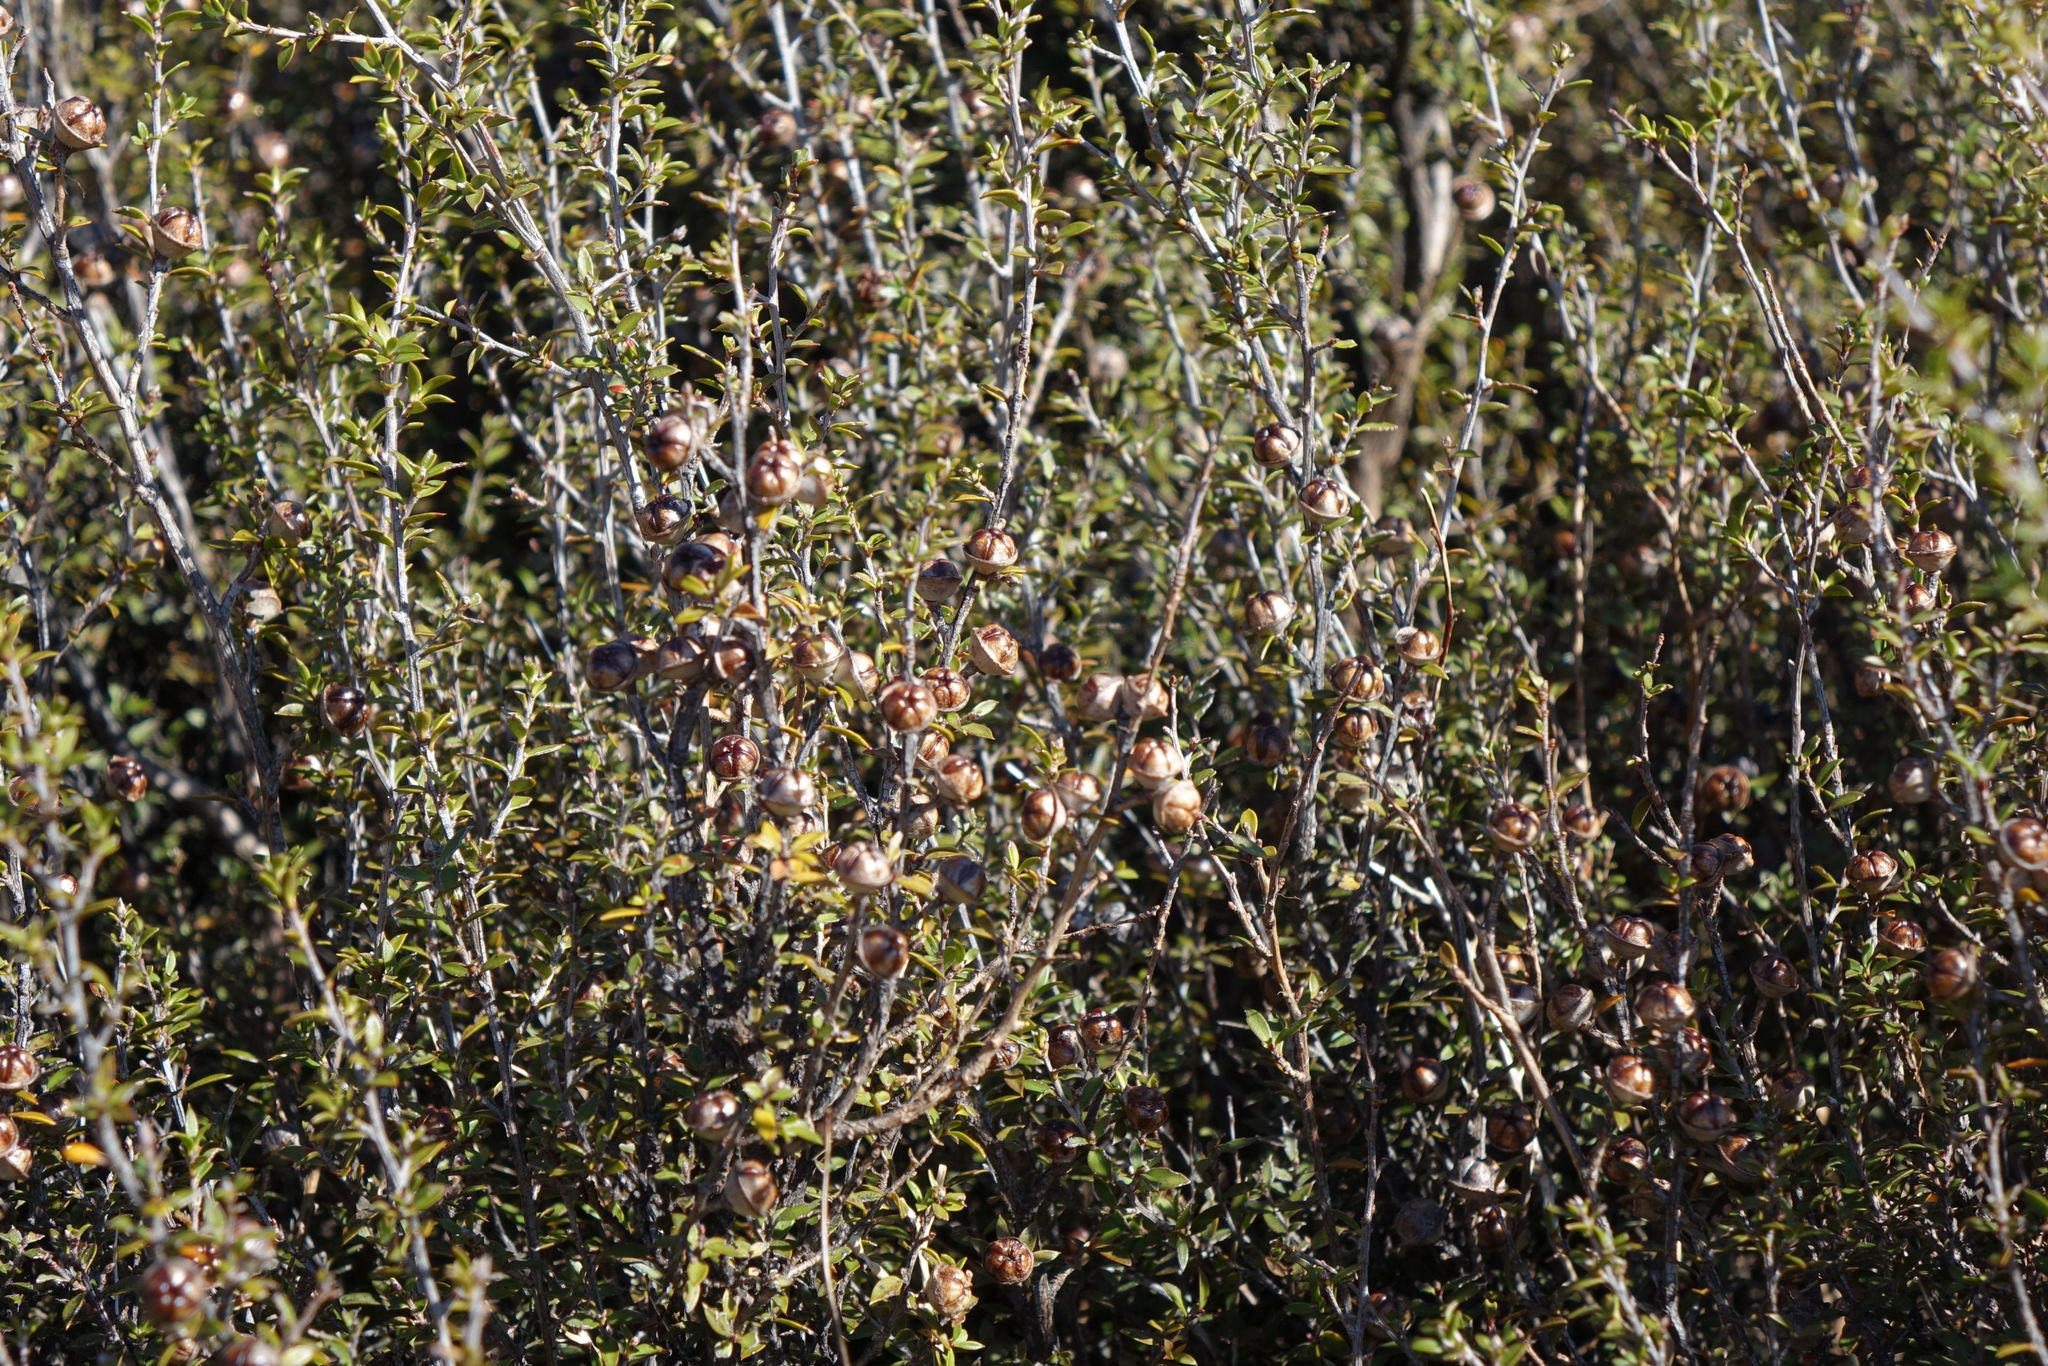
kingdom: Plantae
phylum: Tracheophyta
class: Magnoliopsida
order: Myrtales
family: Myrtaceae
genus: Leptospermum
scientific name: Leptospermum scoparium
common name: Broom tea-tree
